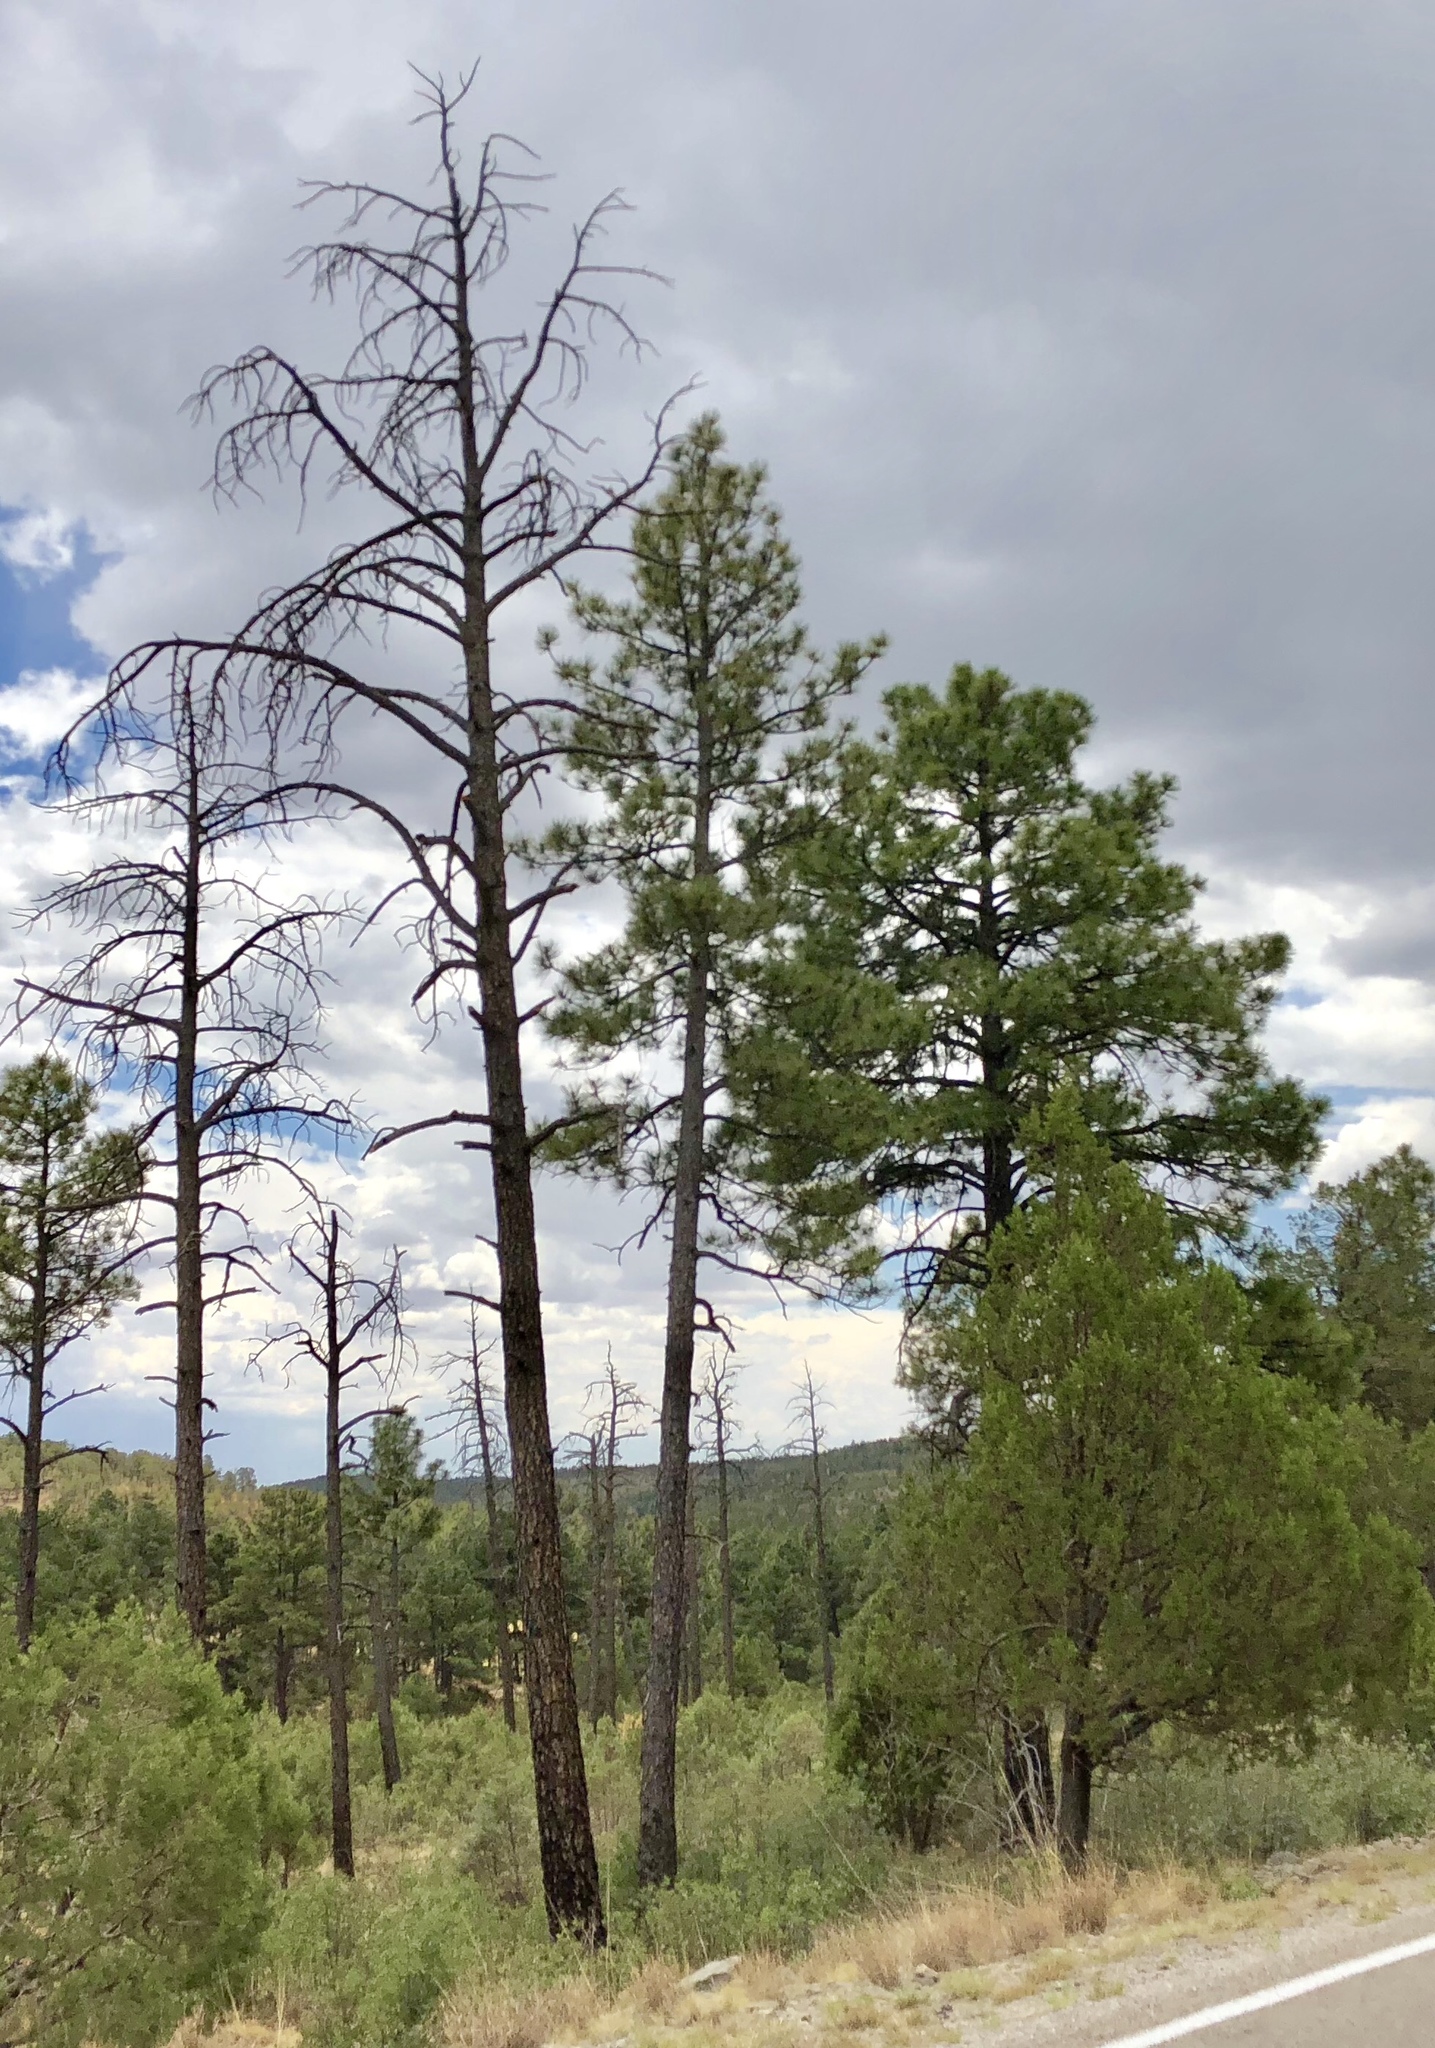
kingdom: Plantae
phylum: Tracheophyta
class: Pinopsida
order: Pinales
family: Pinaceae
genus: Pinus
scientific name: Pinus ponderosa
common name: Western yellow-pine
